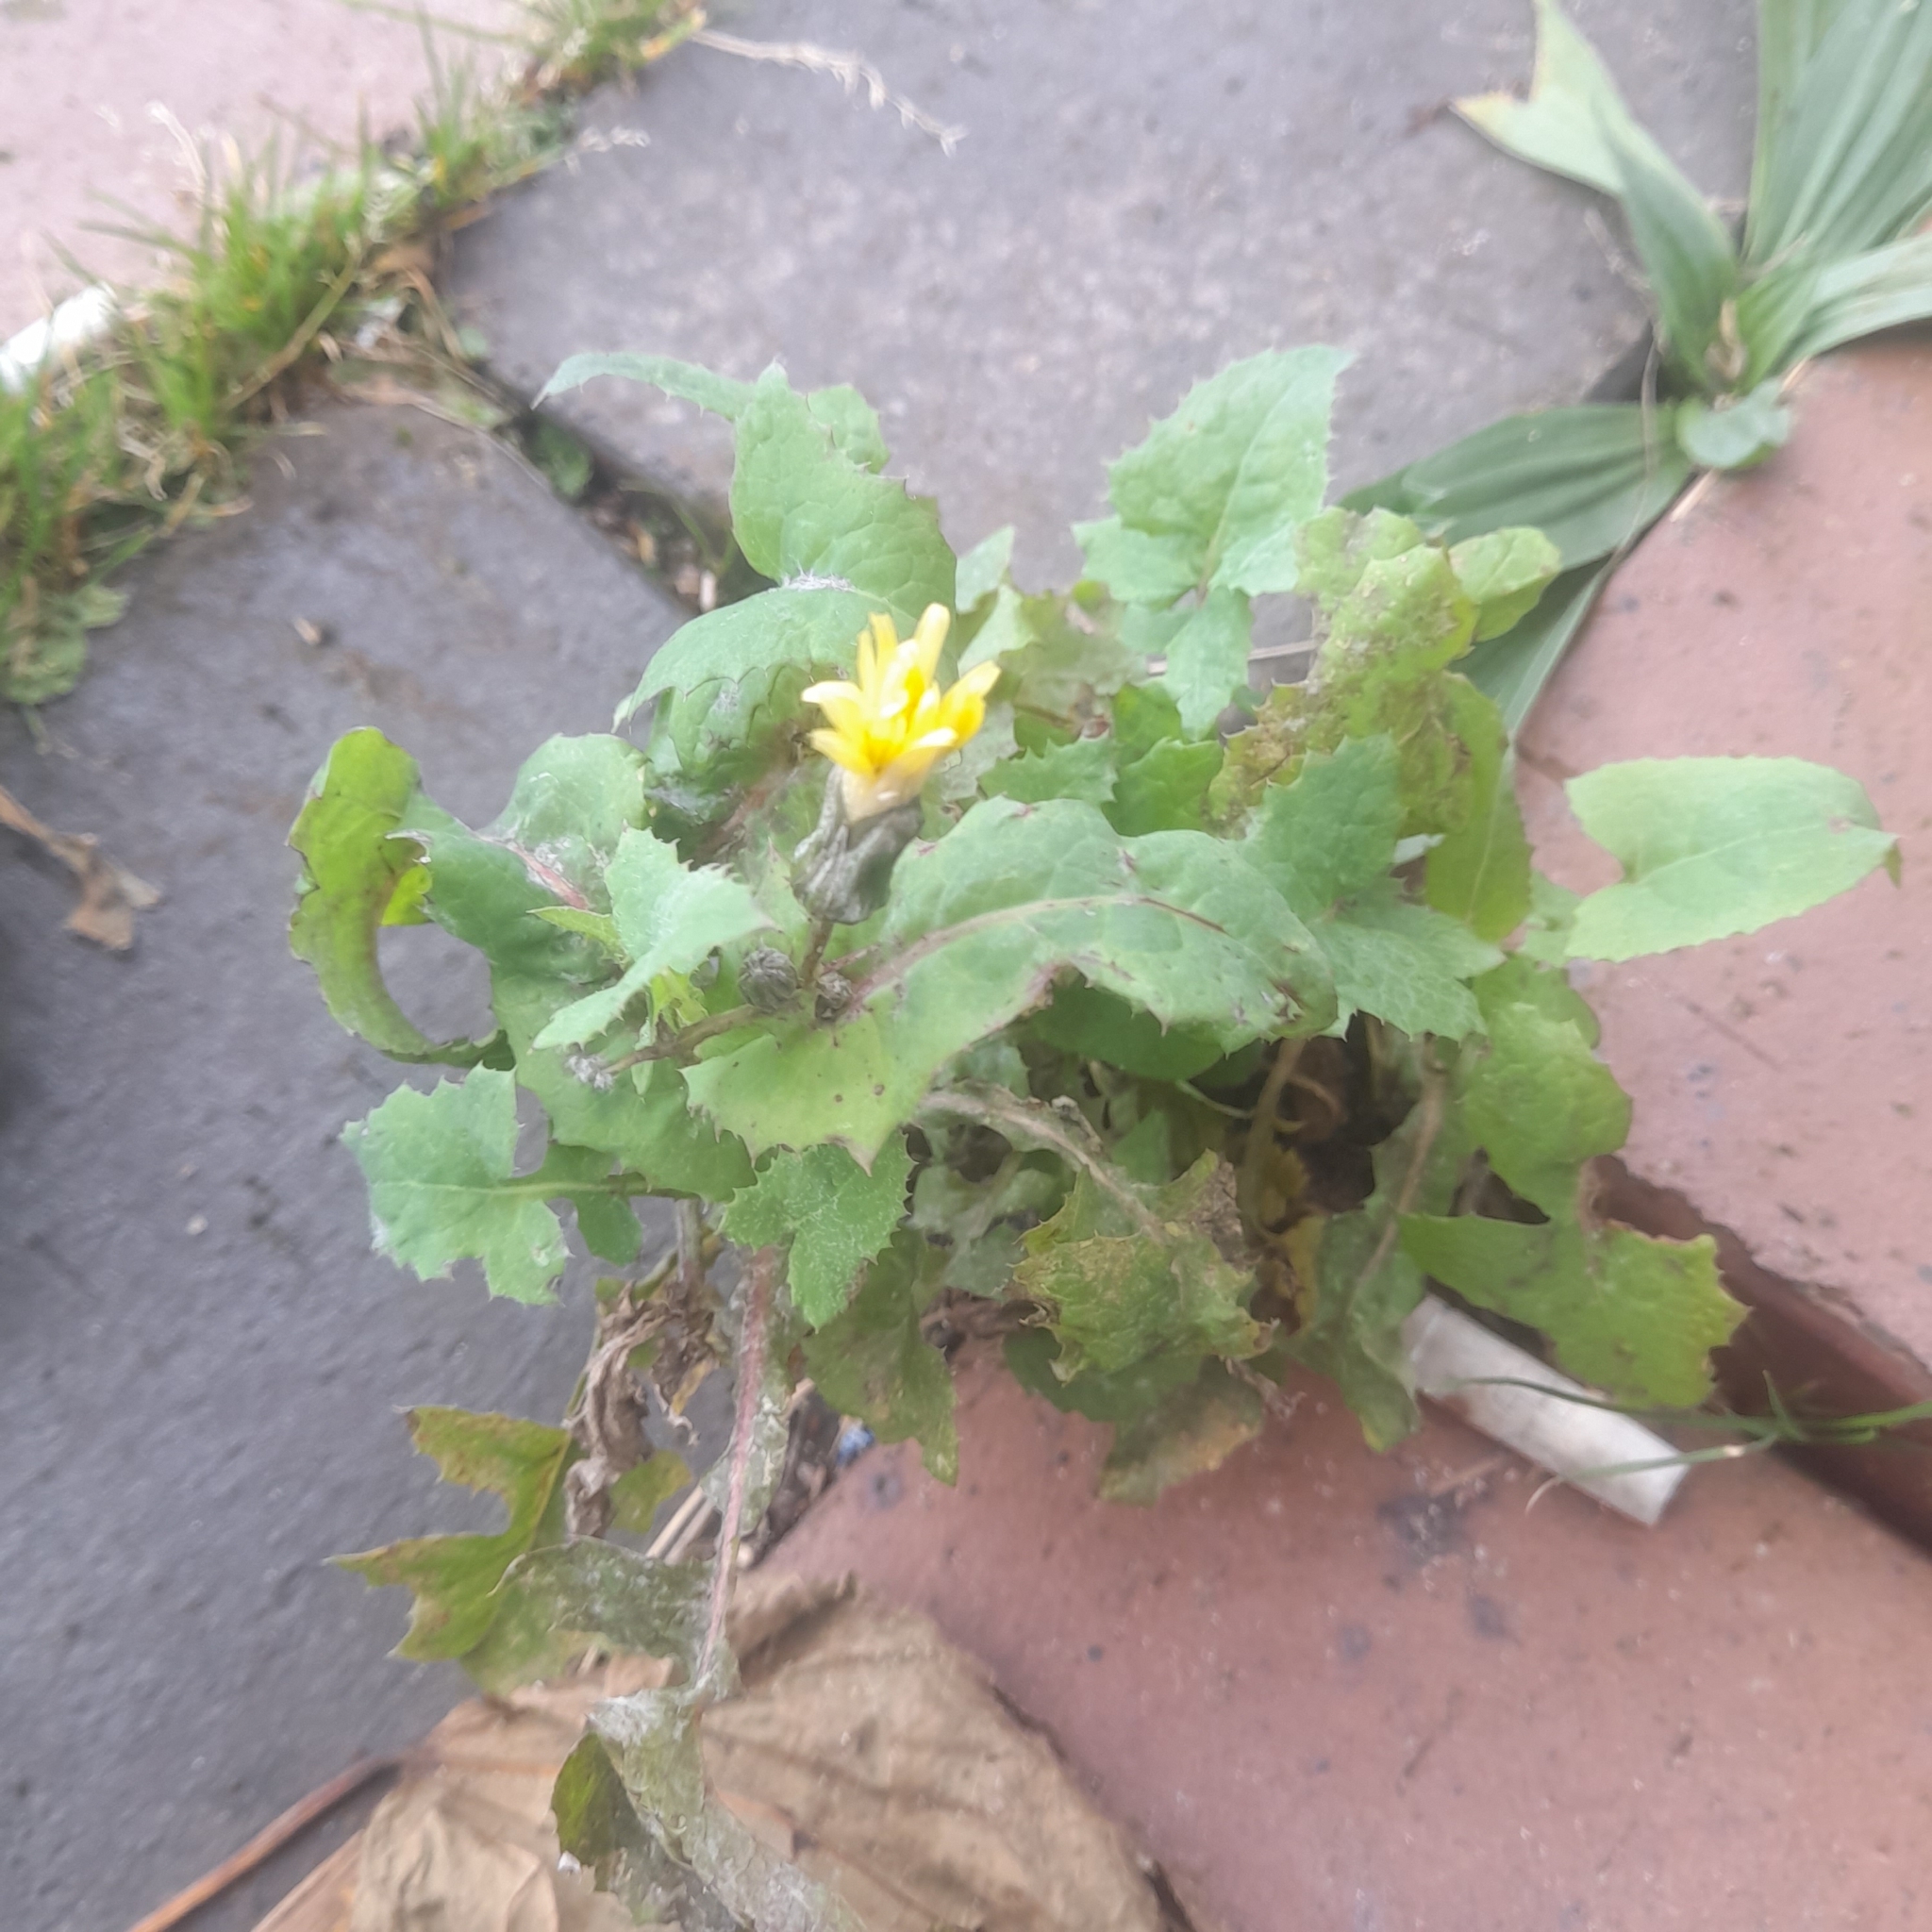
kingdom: Plantae
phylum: Tracheophyta
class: Magnoliopsida
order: Asterales
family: Asteraceae
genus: Sonchus
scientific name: Sonchus oleraceus
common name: Common sowthistle
